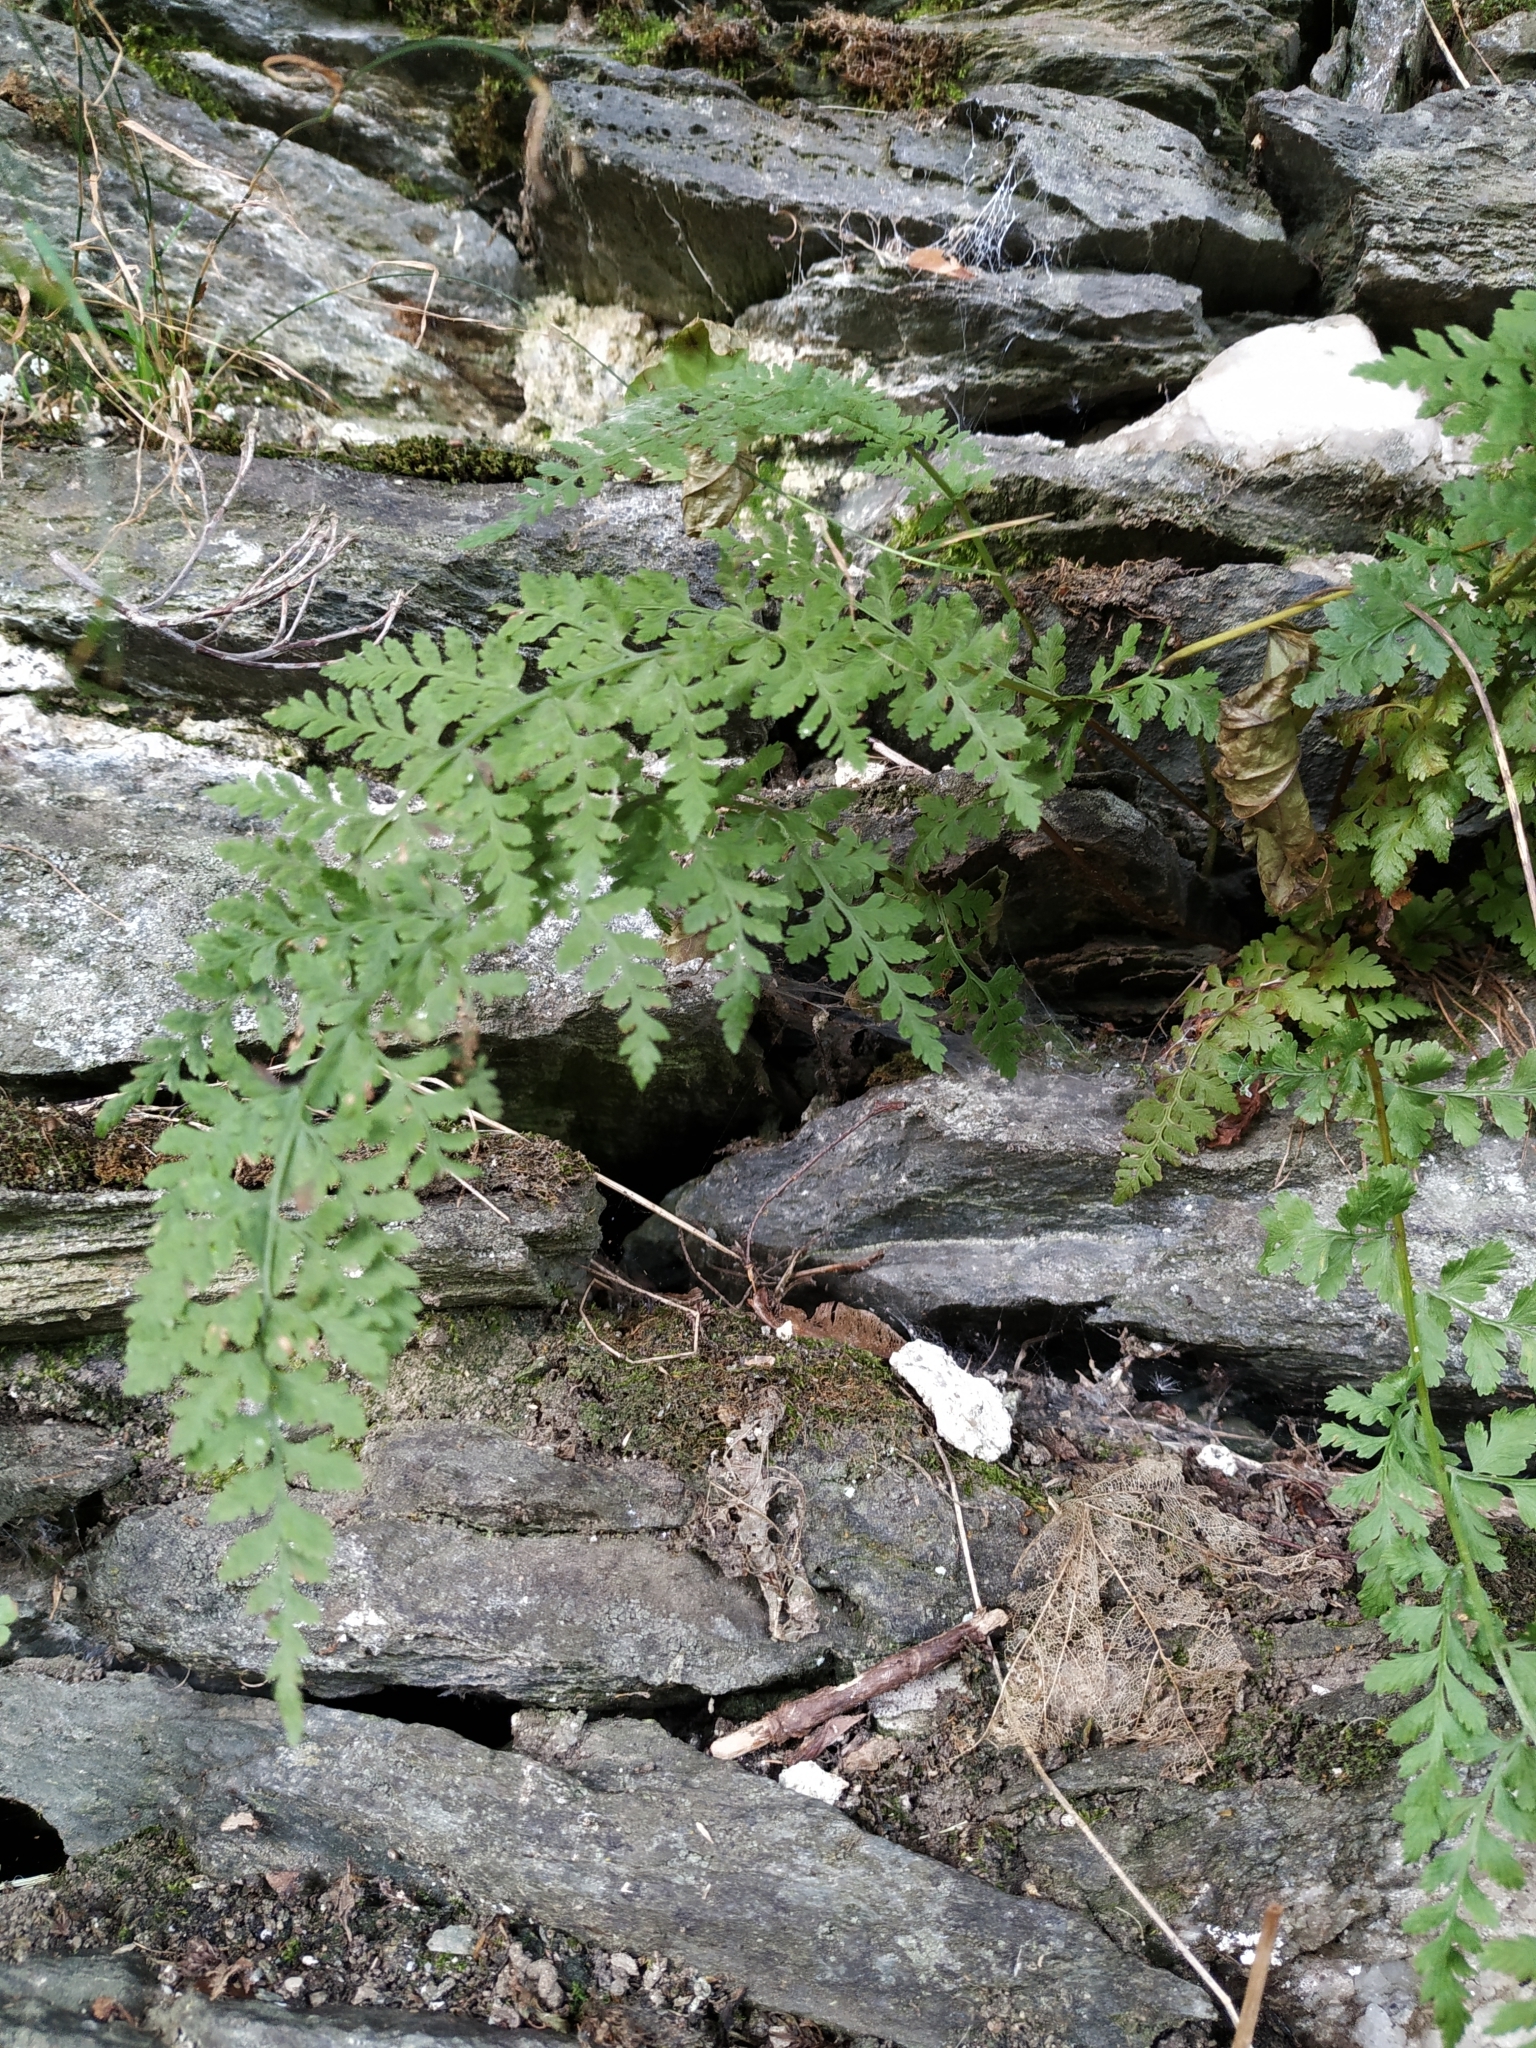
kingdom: Plantae
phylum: Tracheophyta
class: Polypodiopsida
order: Polypodiales
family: Cystopteridaceae
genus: Cystopteris
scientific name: Cystopteris fragilis
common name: Brittle bladder fern
